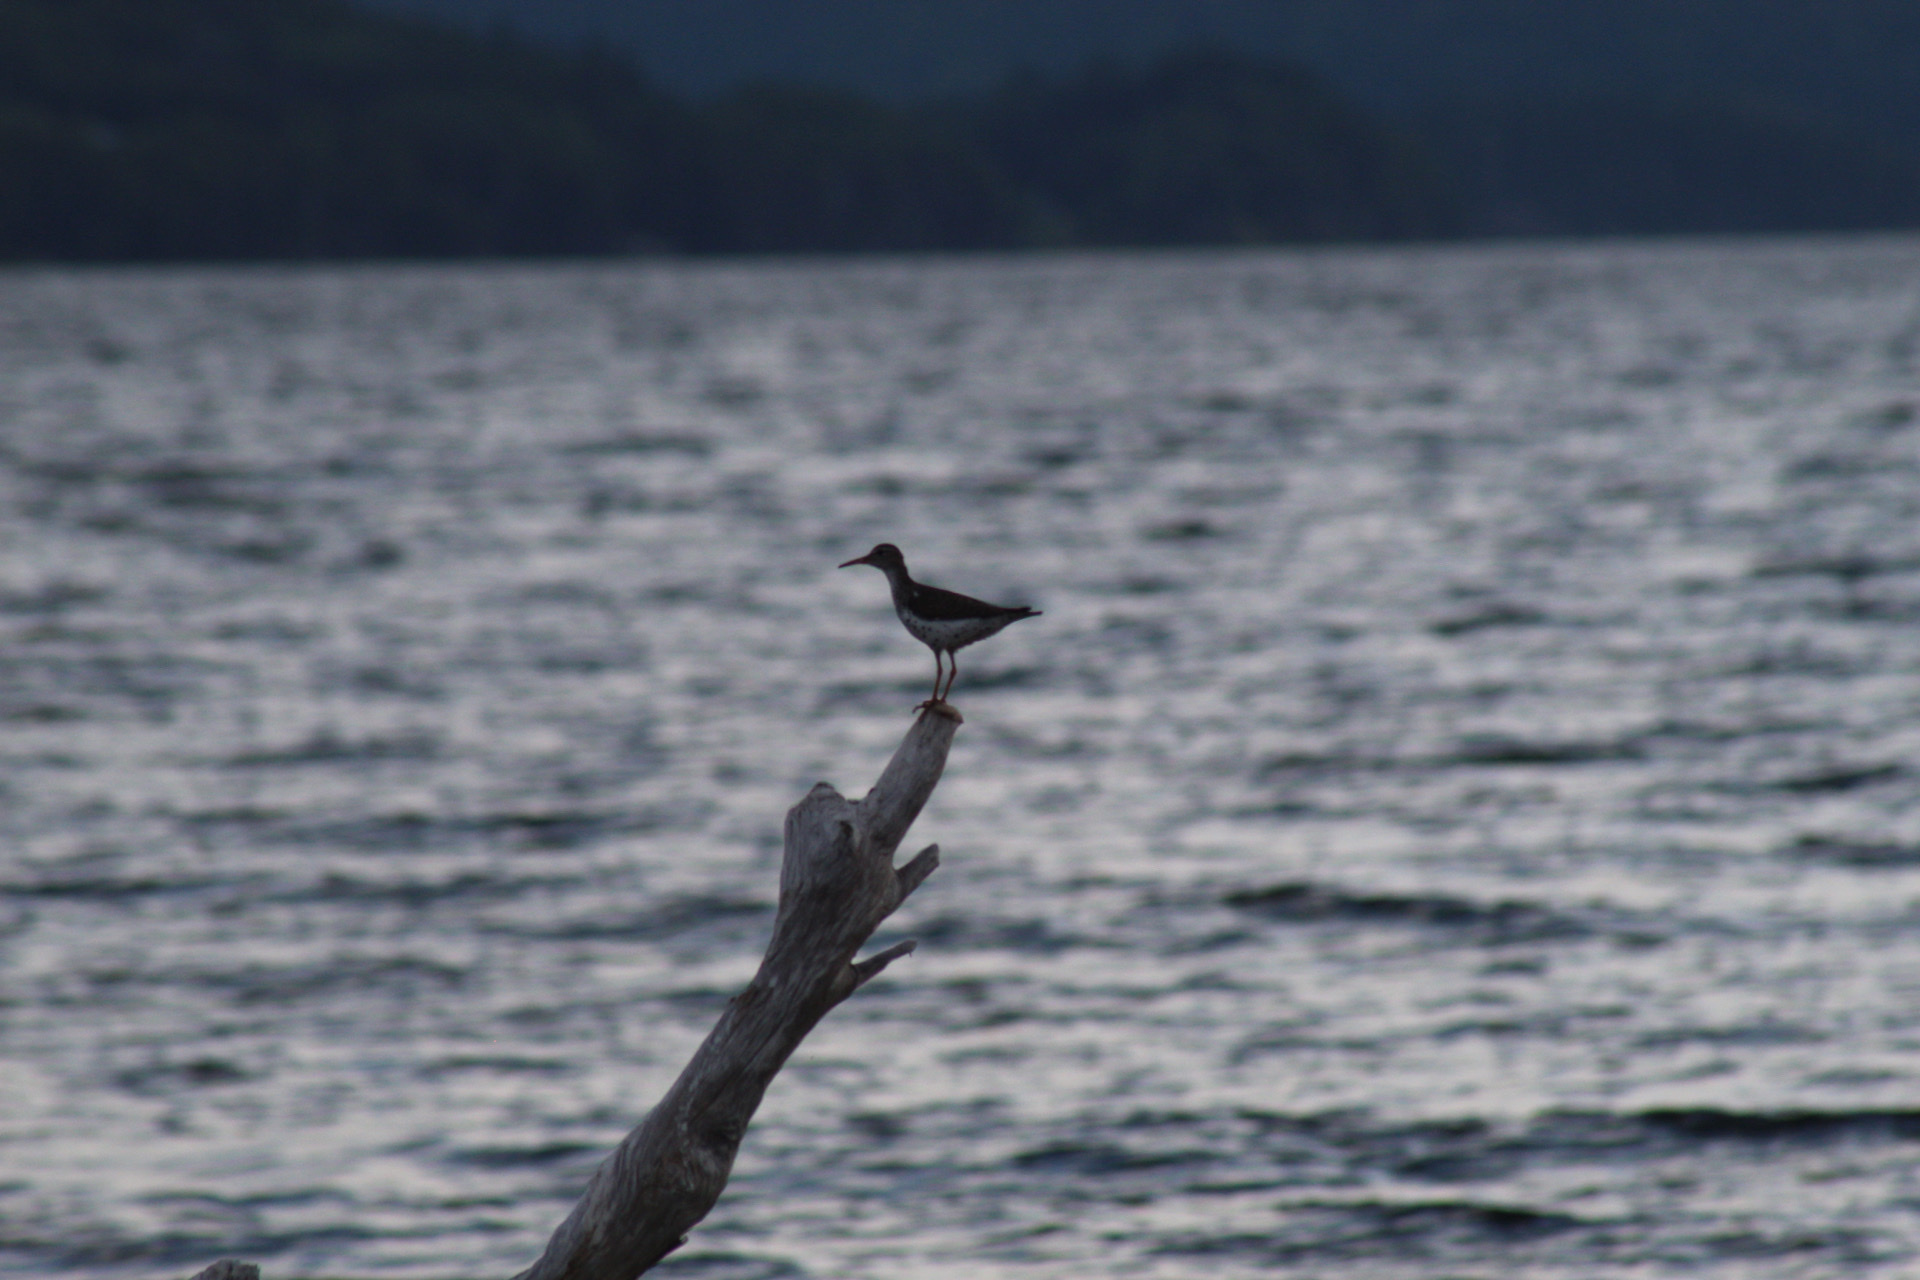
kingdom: Animalia
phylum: Chordata
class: Aves
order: Charadriiformes
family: Scolopacidae
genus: Actitis
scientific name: Actitis macularius
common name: Spotted sandpiper
